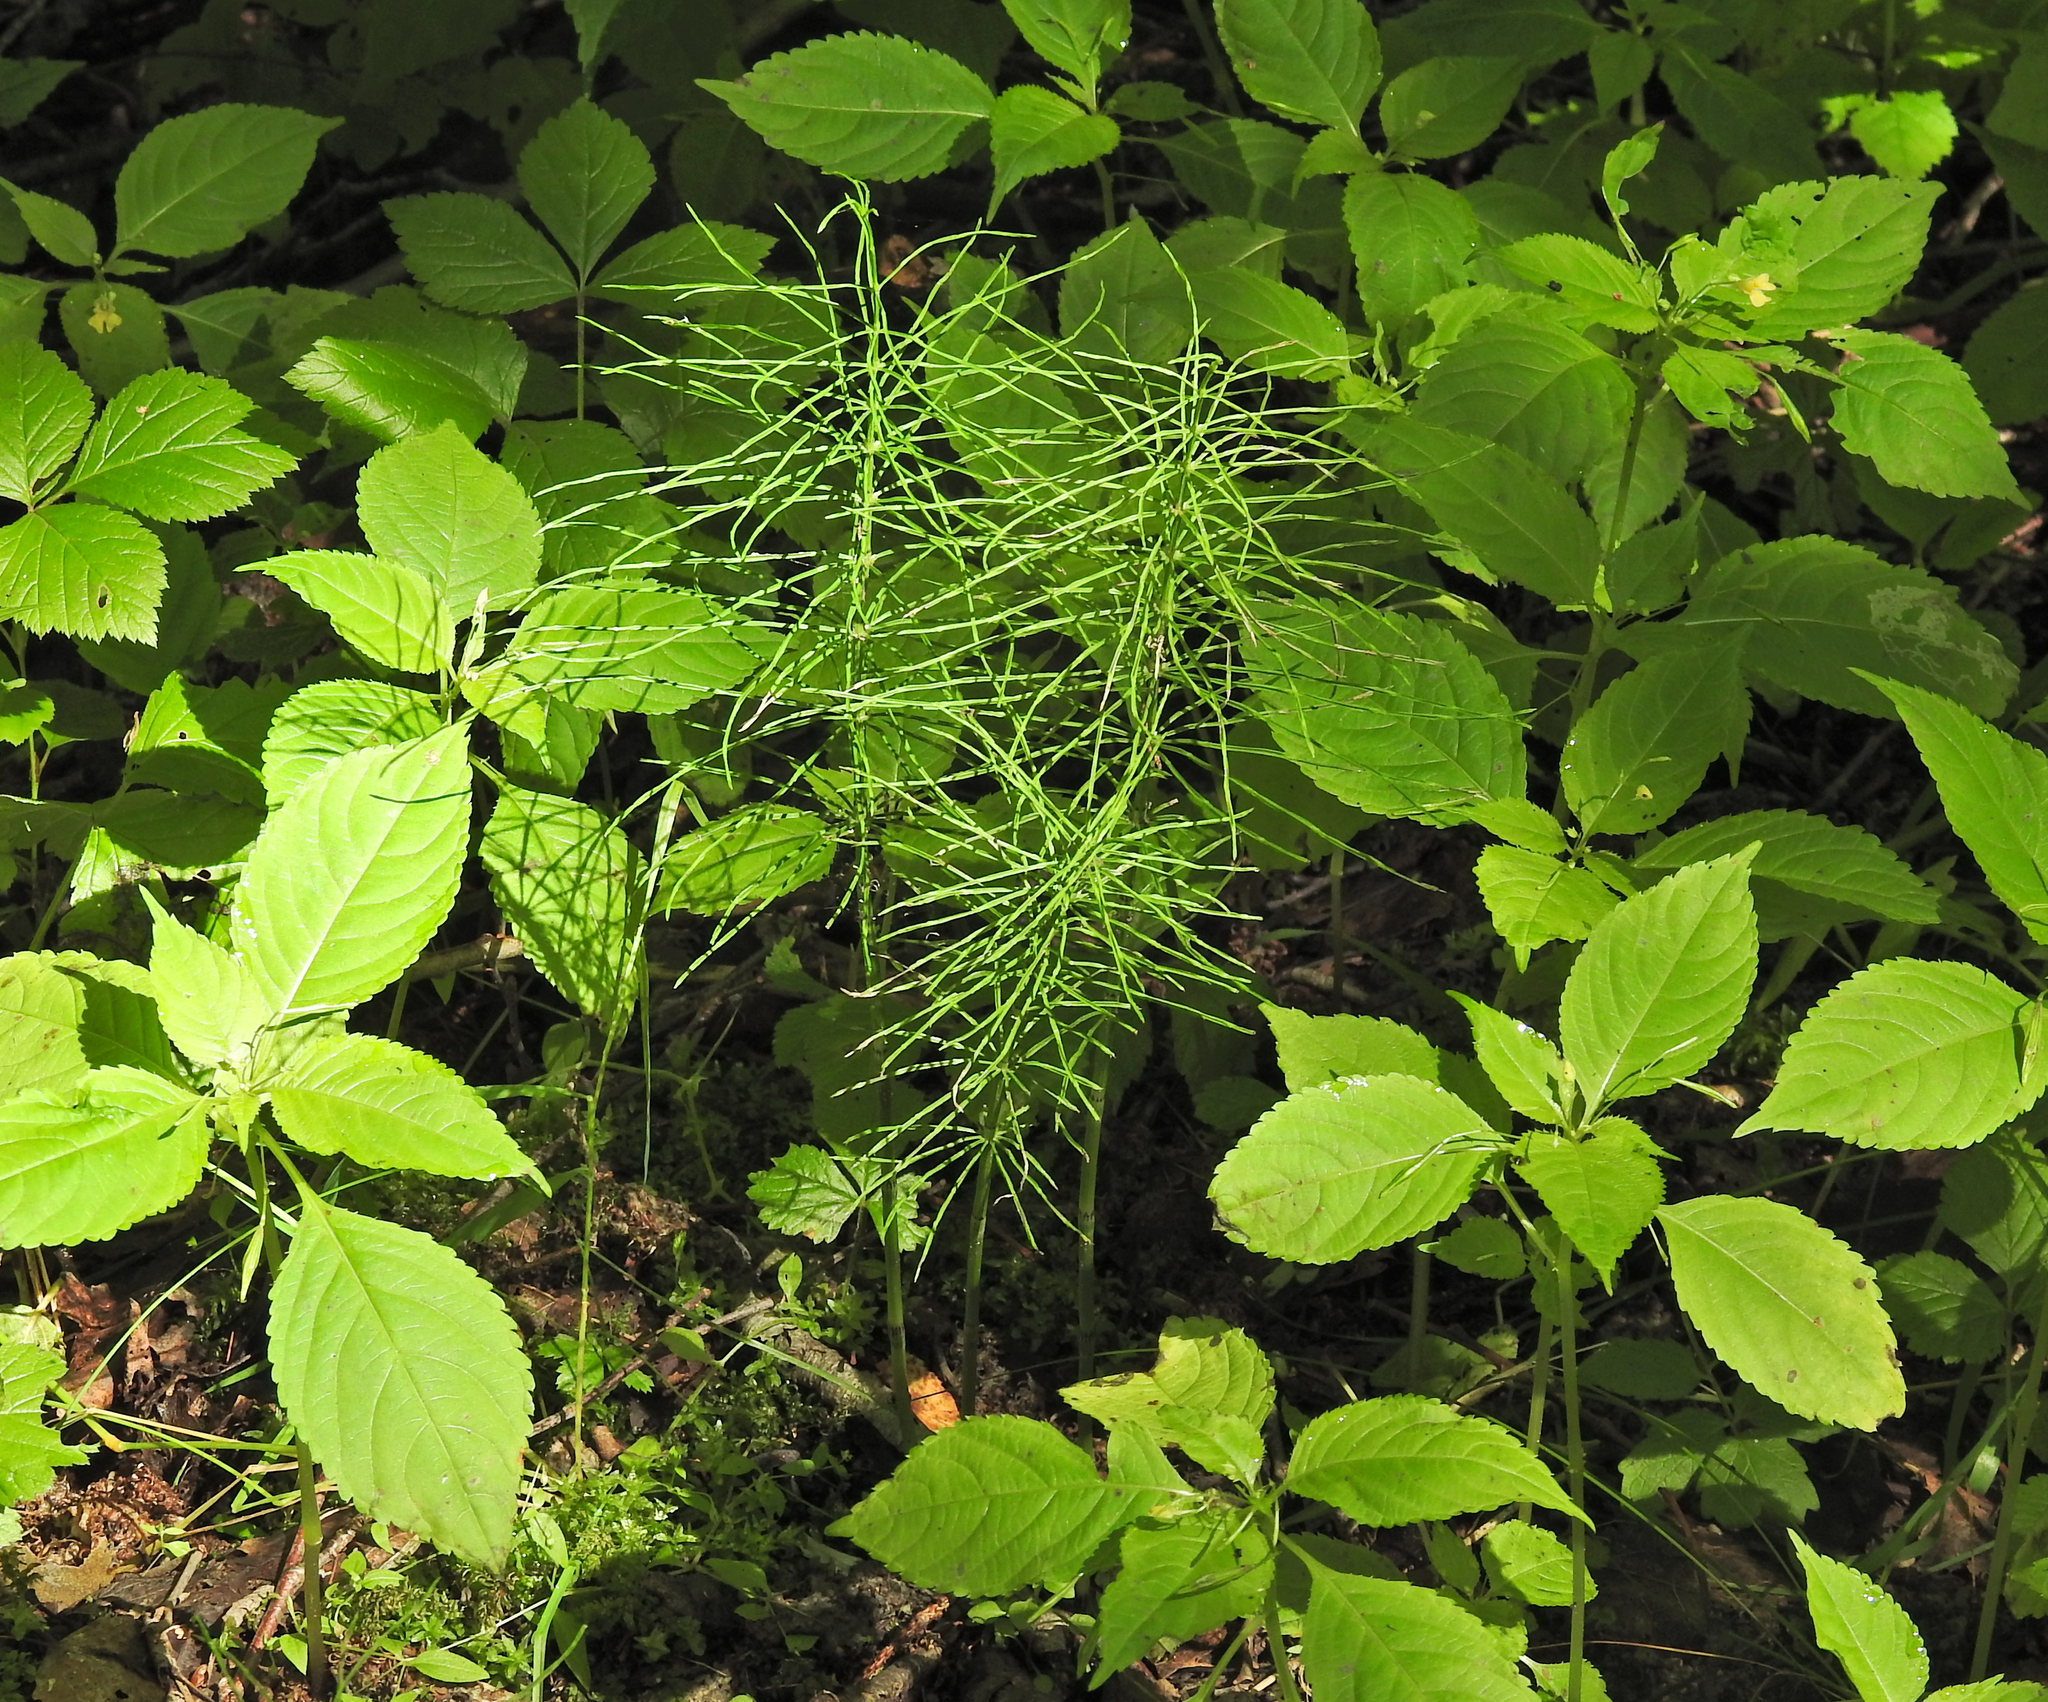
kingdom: Plantae
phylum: Tracheophyta
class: Polypodiopsida
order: Equisetales
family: Equisetaceae
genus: Equisetum
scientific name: Equisetum arvense
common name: Field horsetail
